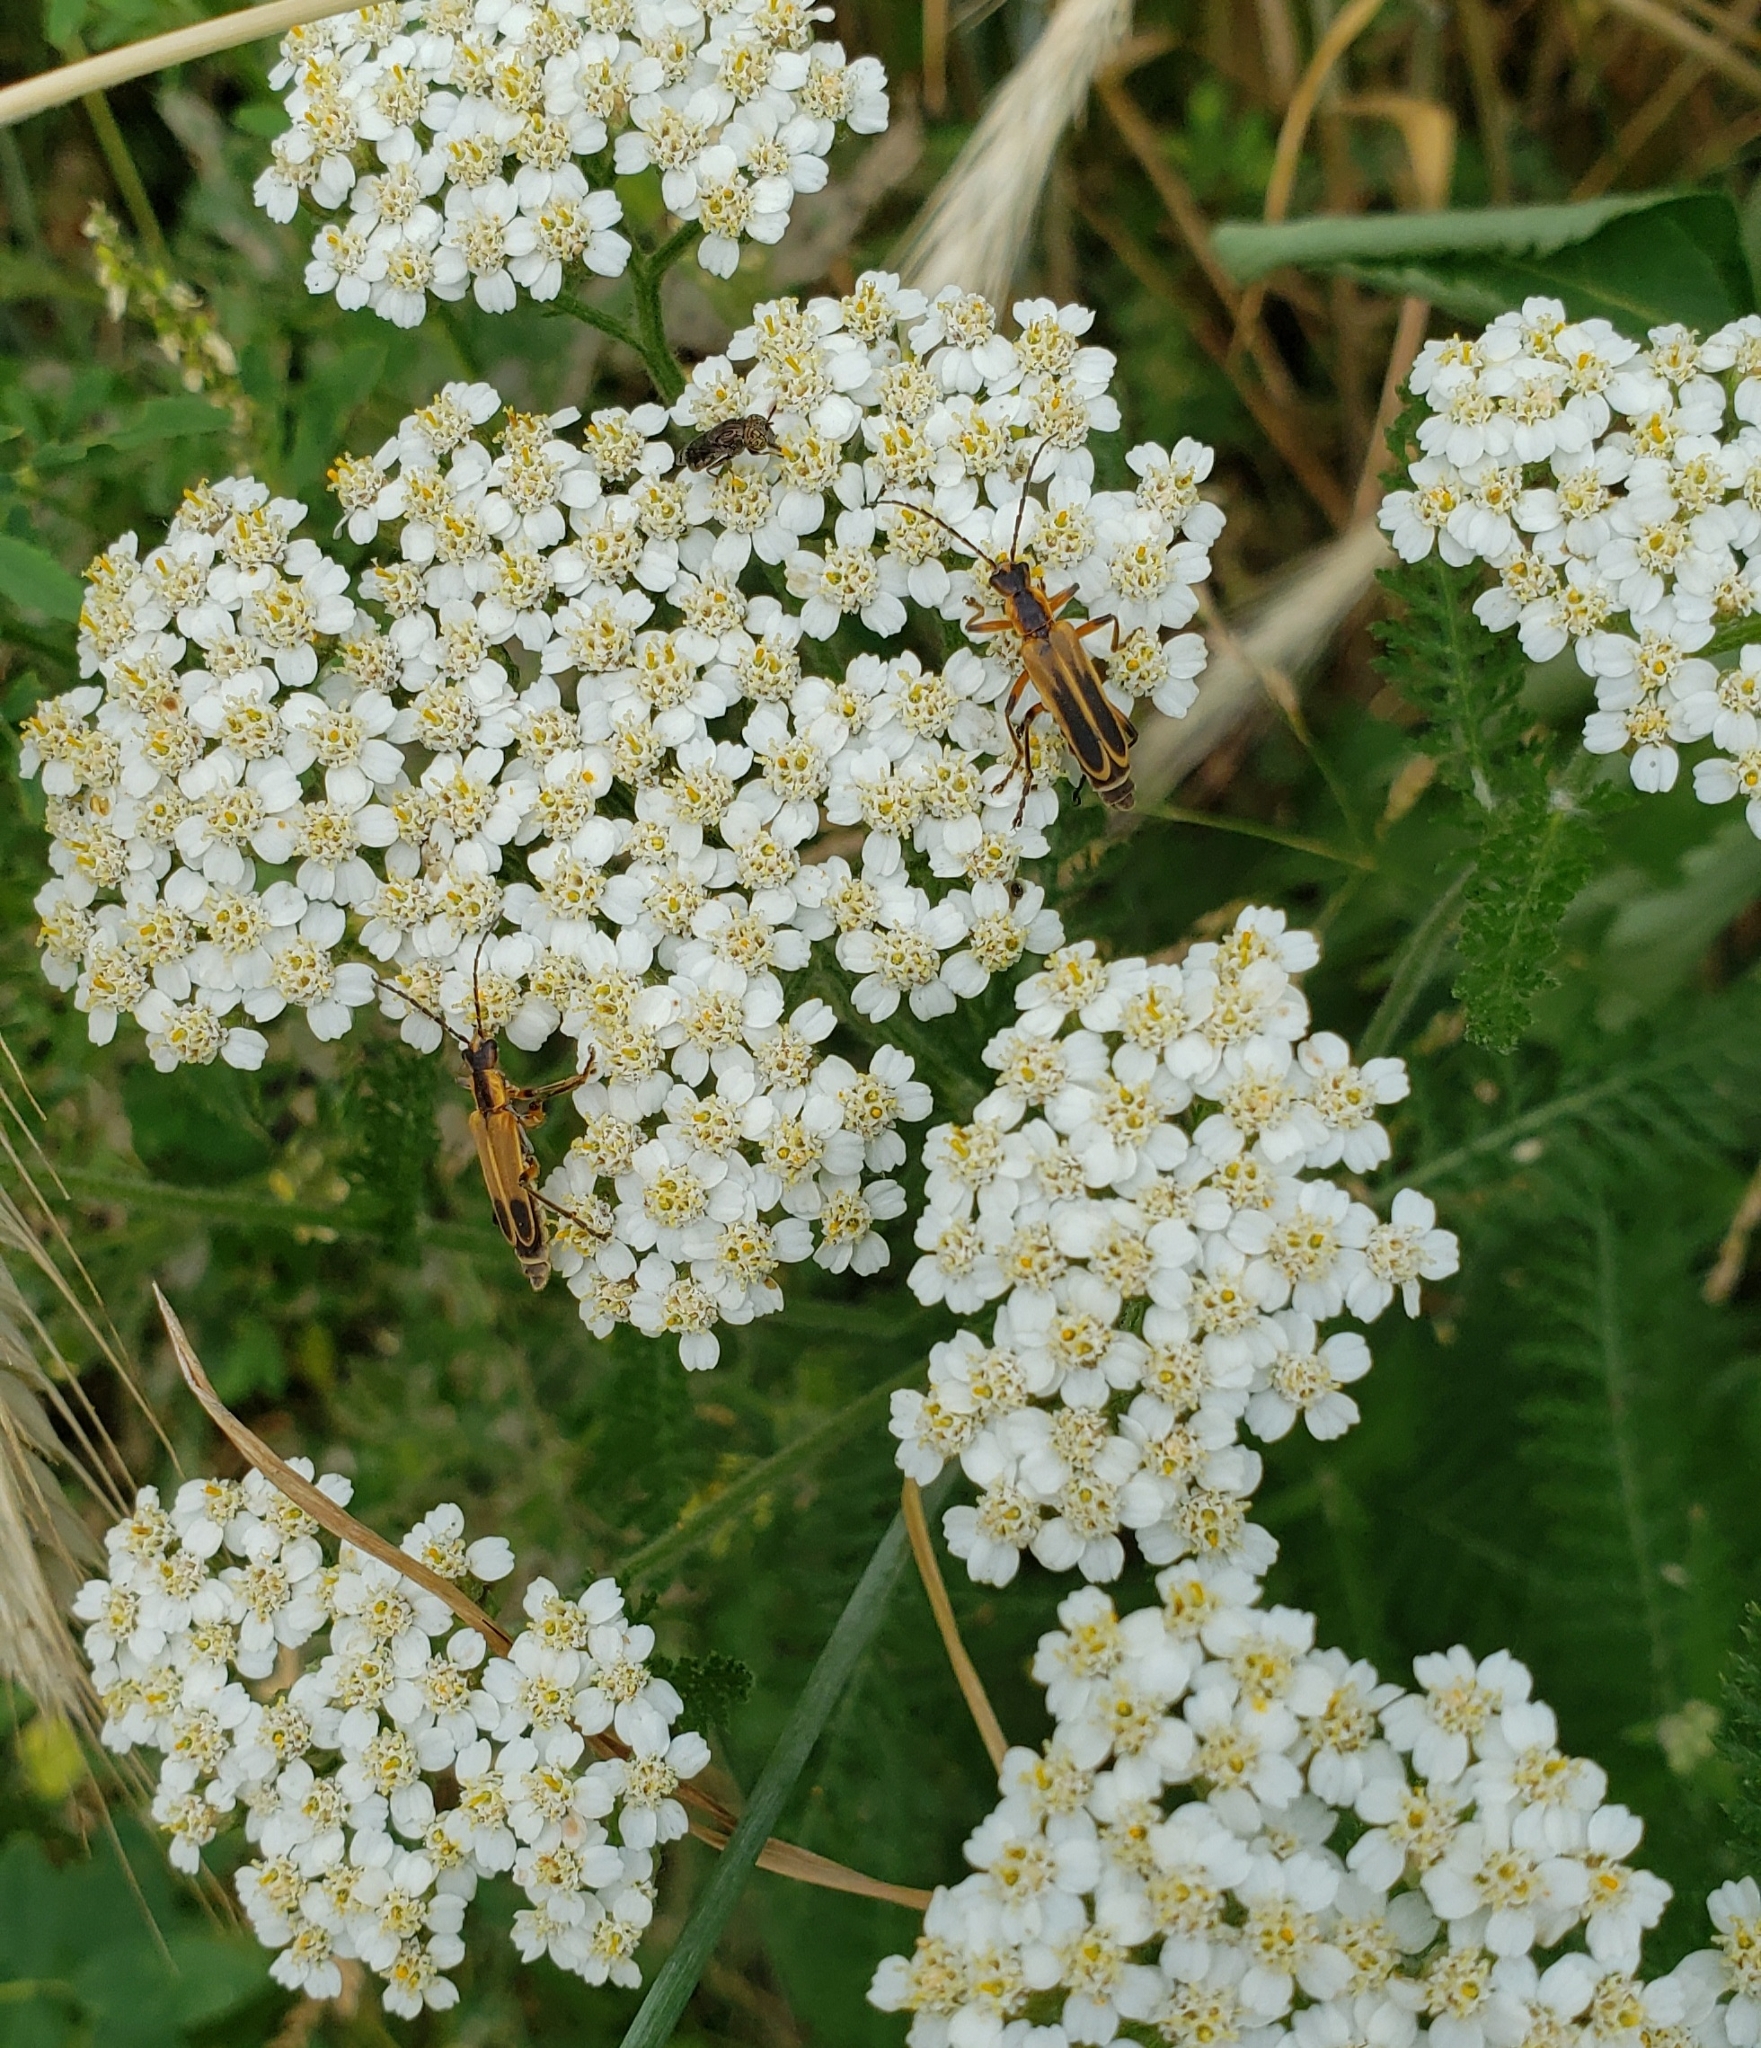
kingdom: Animalia
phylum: Arthropoda
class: Insecta
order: Coleoptera
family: Cantharidae
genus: Chauliognathus
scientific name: Chauliognathus marginatus
